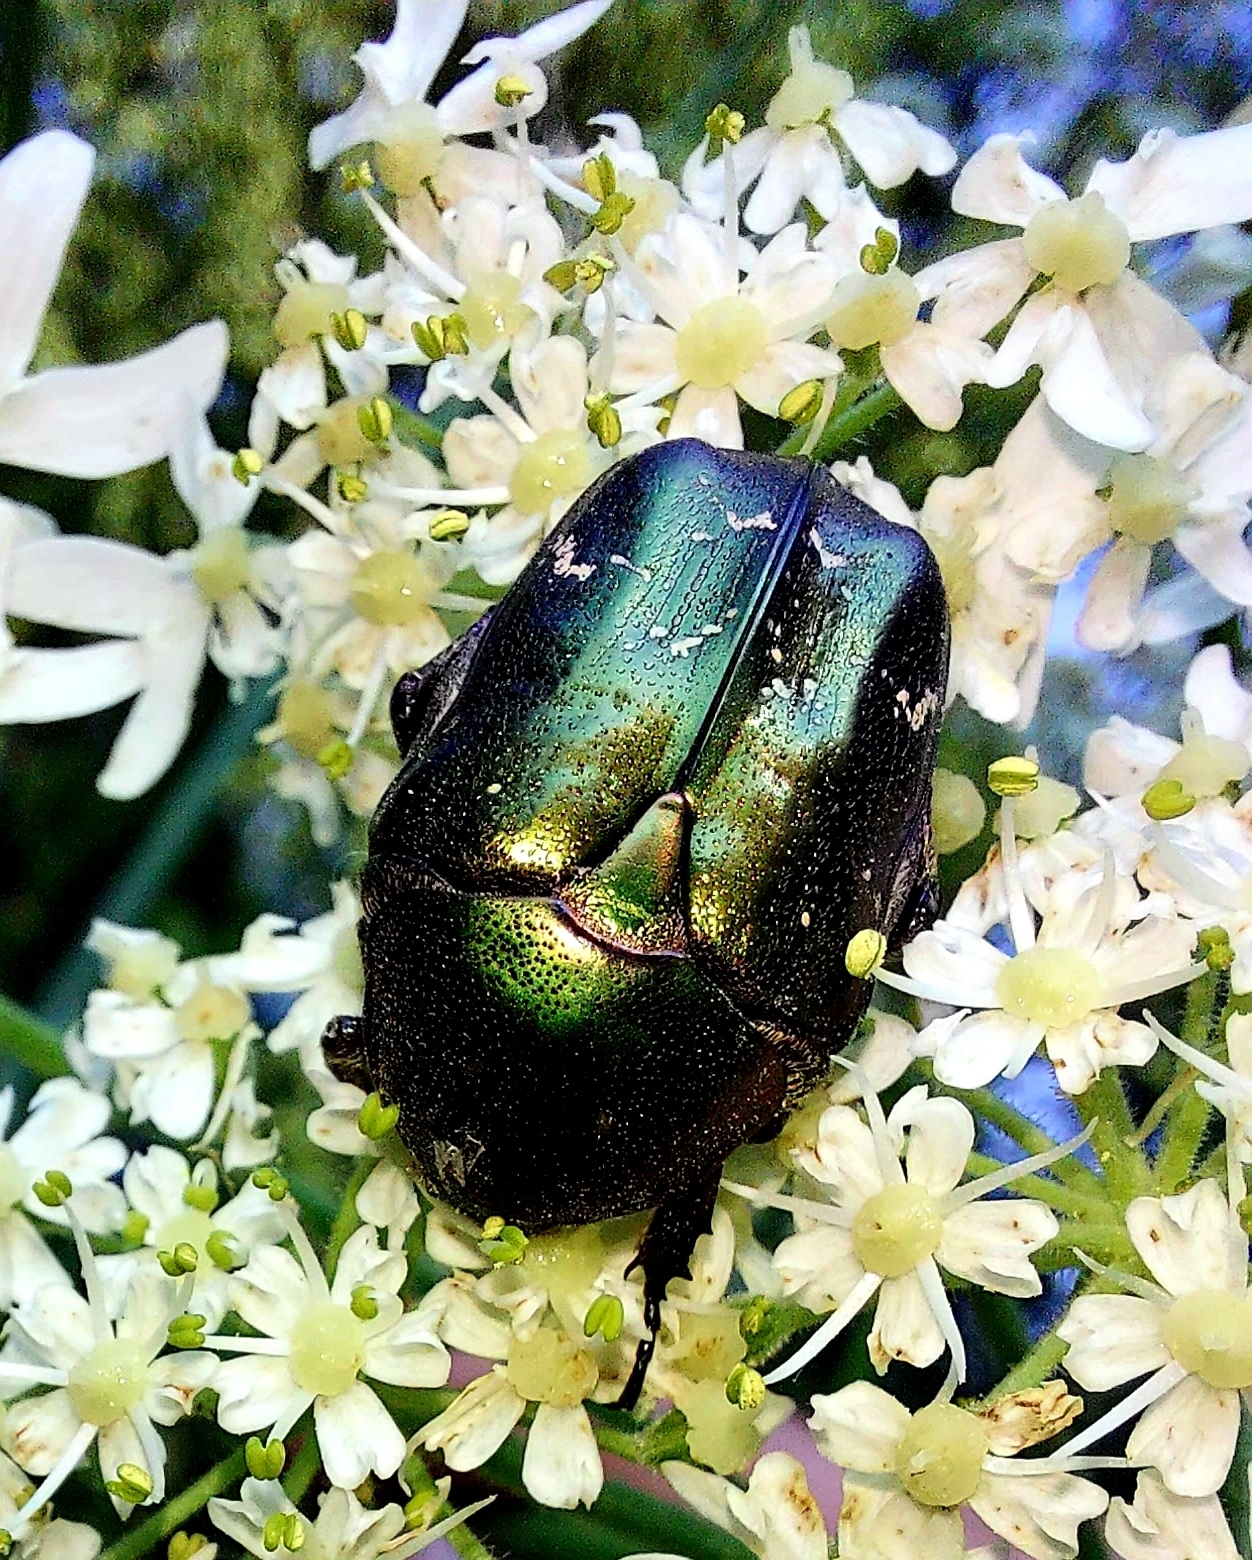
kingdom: Animalia
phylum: Arthropoda
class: Insecta
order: Coleoptera
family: Scarabaeidae
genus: Cetonia
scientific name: Cetonia aurata
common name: Rose chafer
